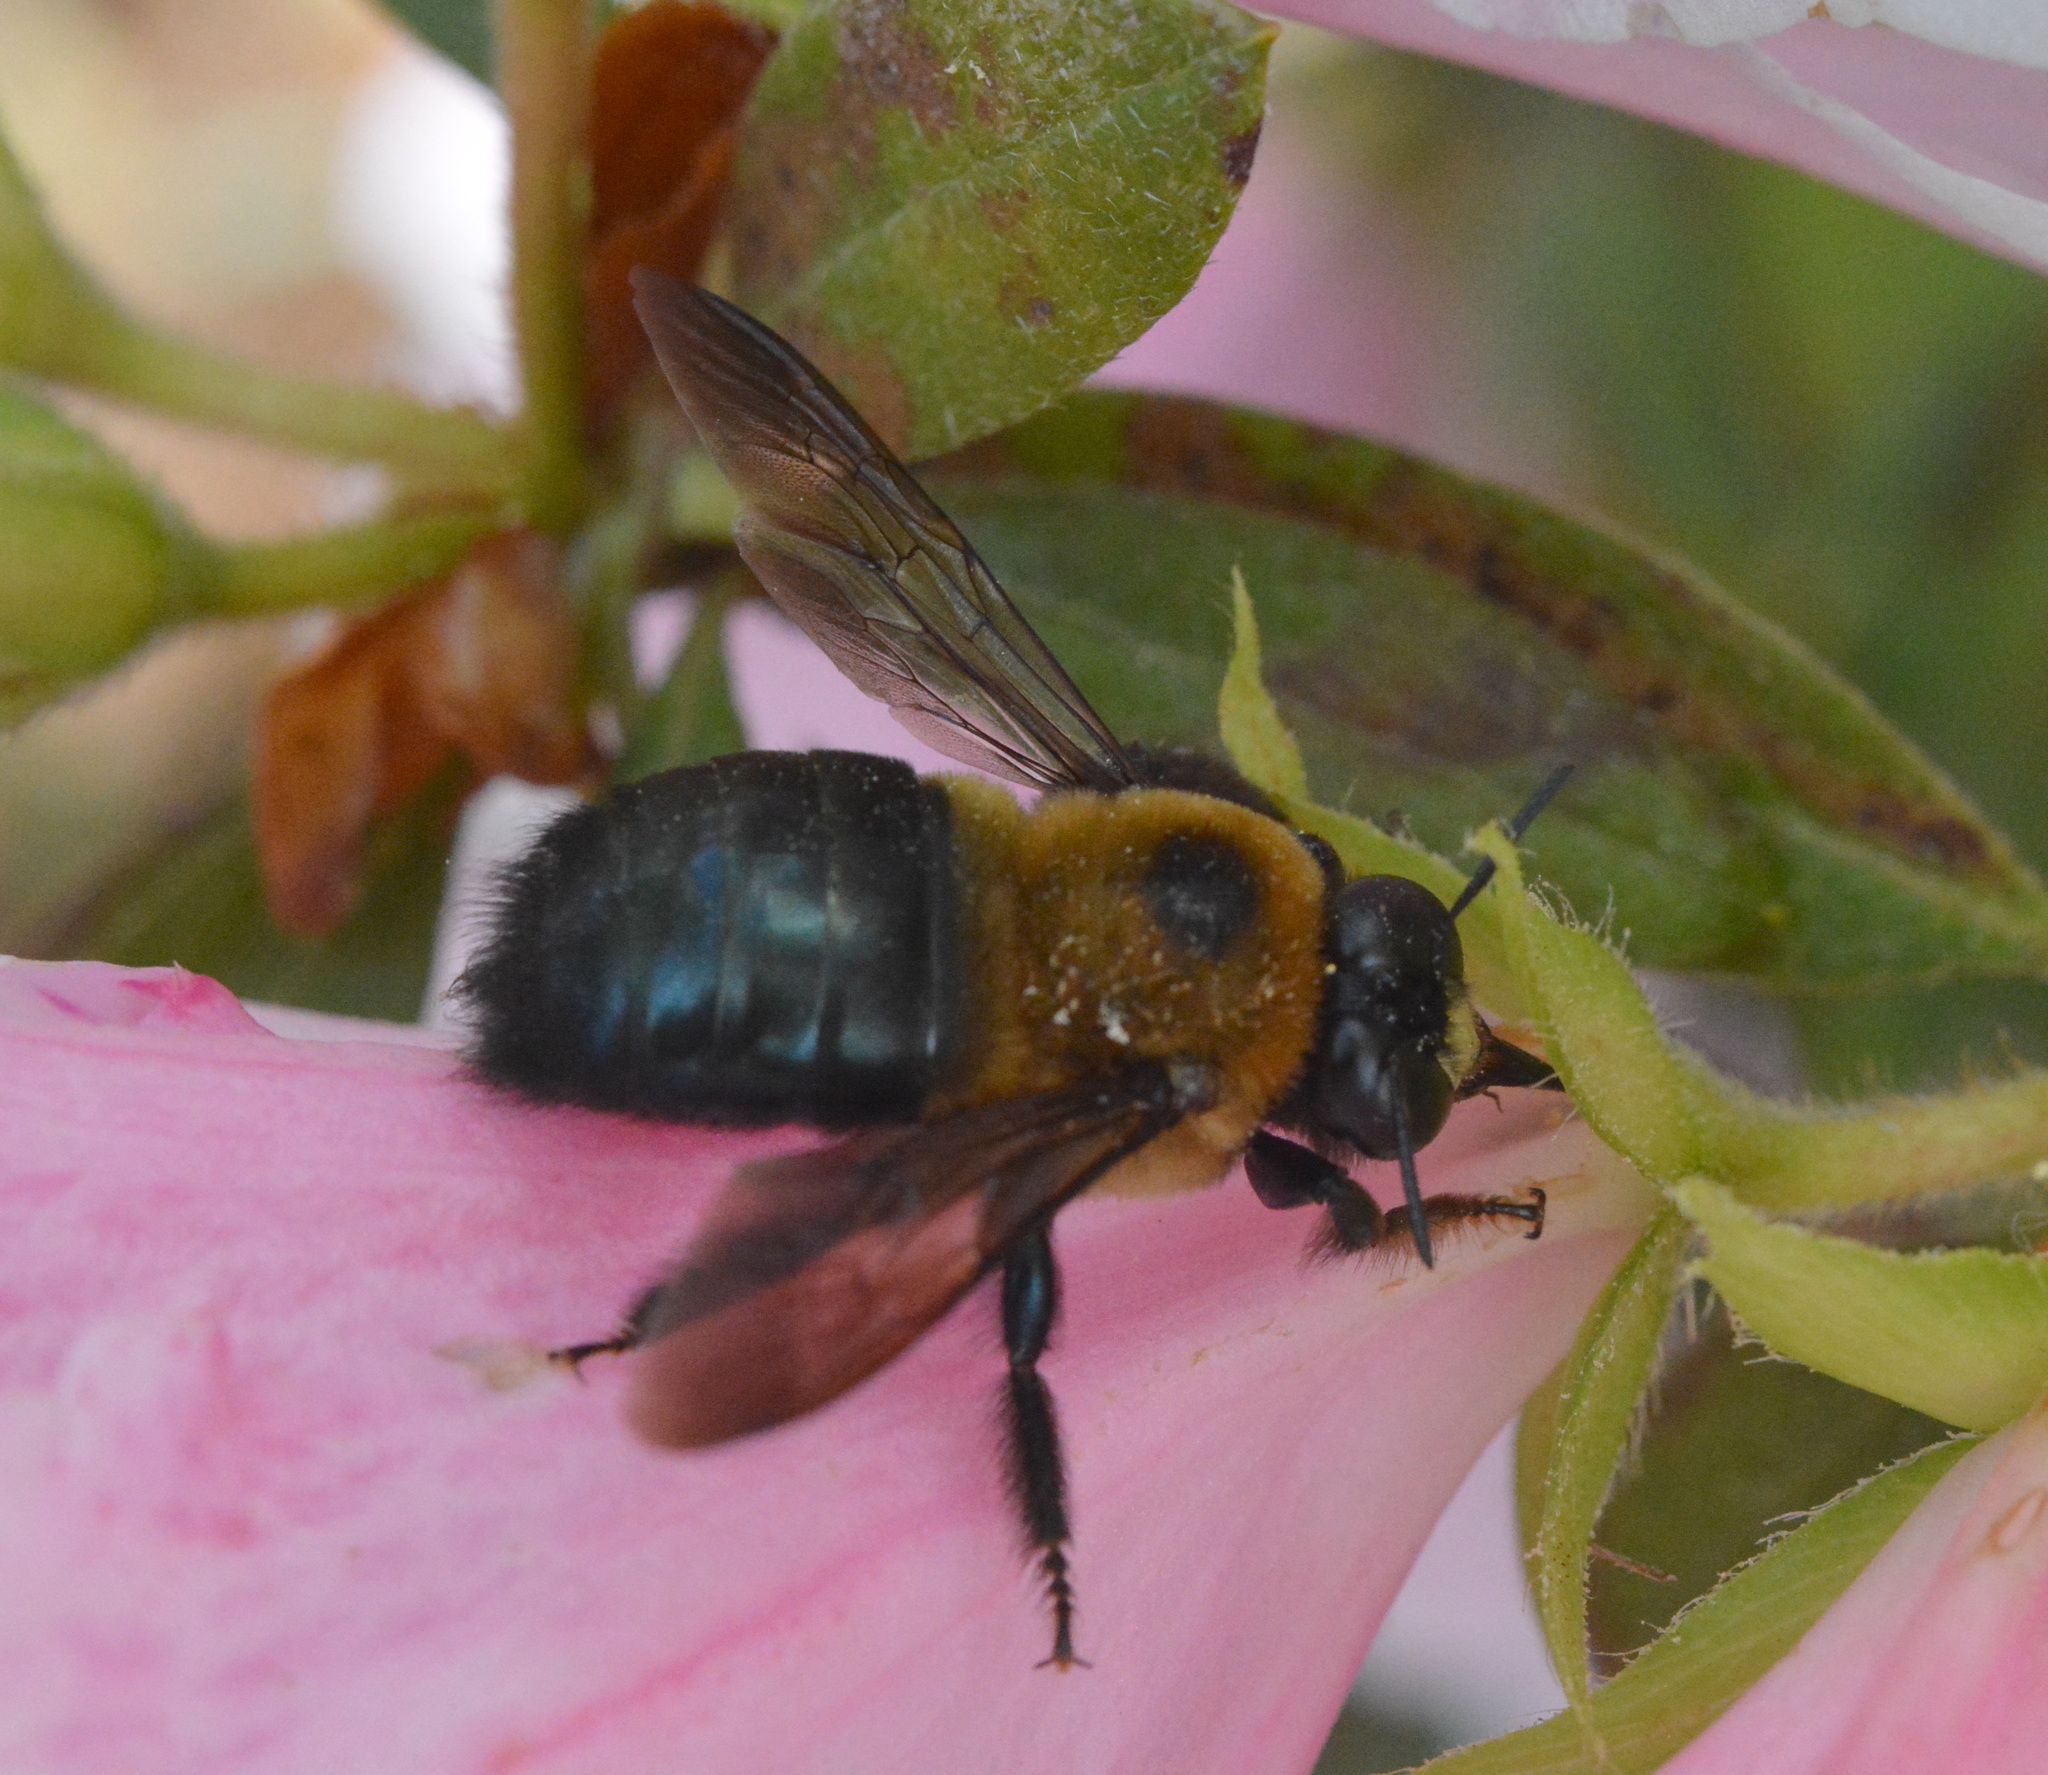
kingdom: Animalia
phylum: Arthropoda
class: Insecta
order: Hymenoptera
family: Apidae
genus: Xylocopa
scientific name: Xylocopa virginica
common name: Carpenter bee
